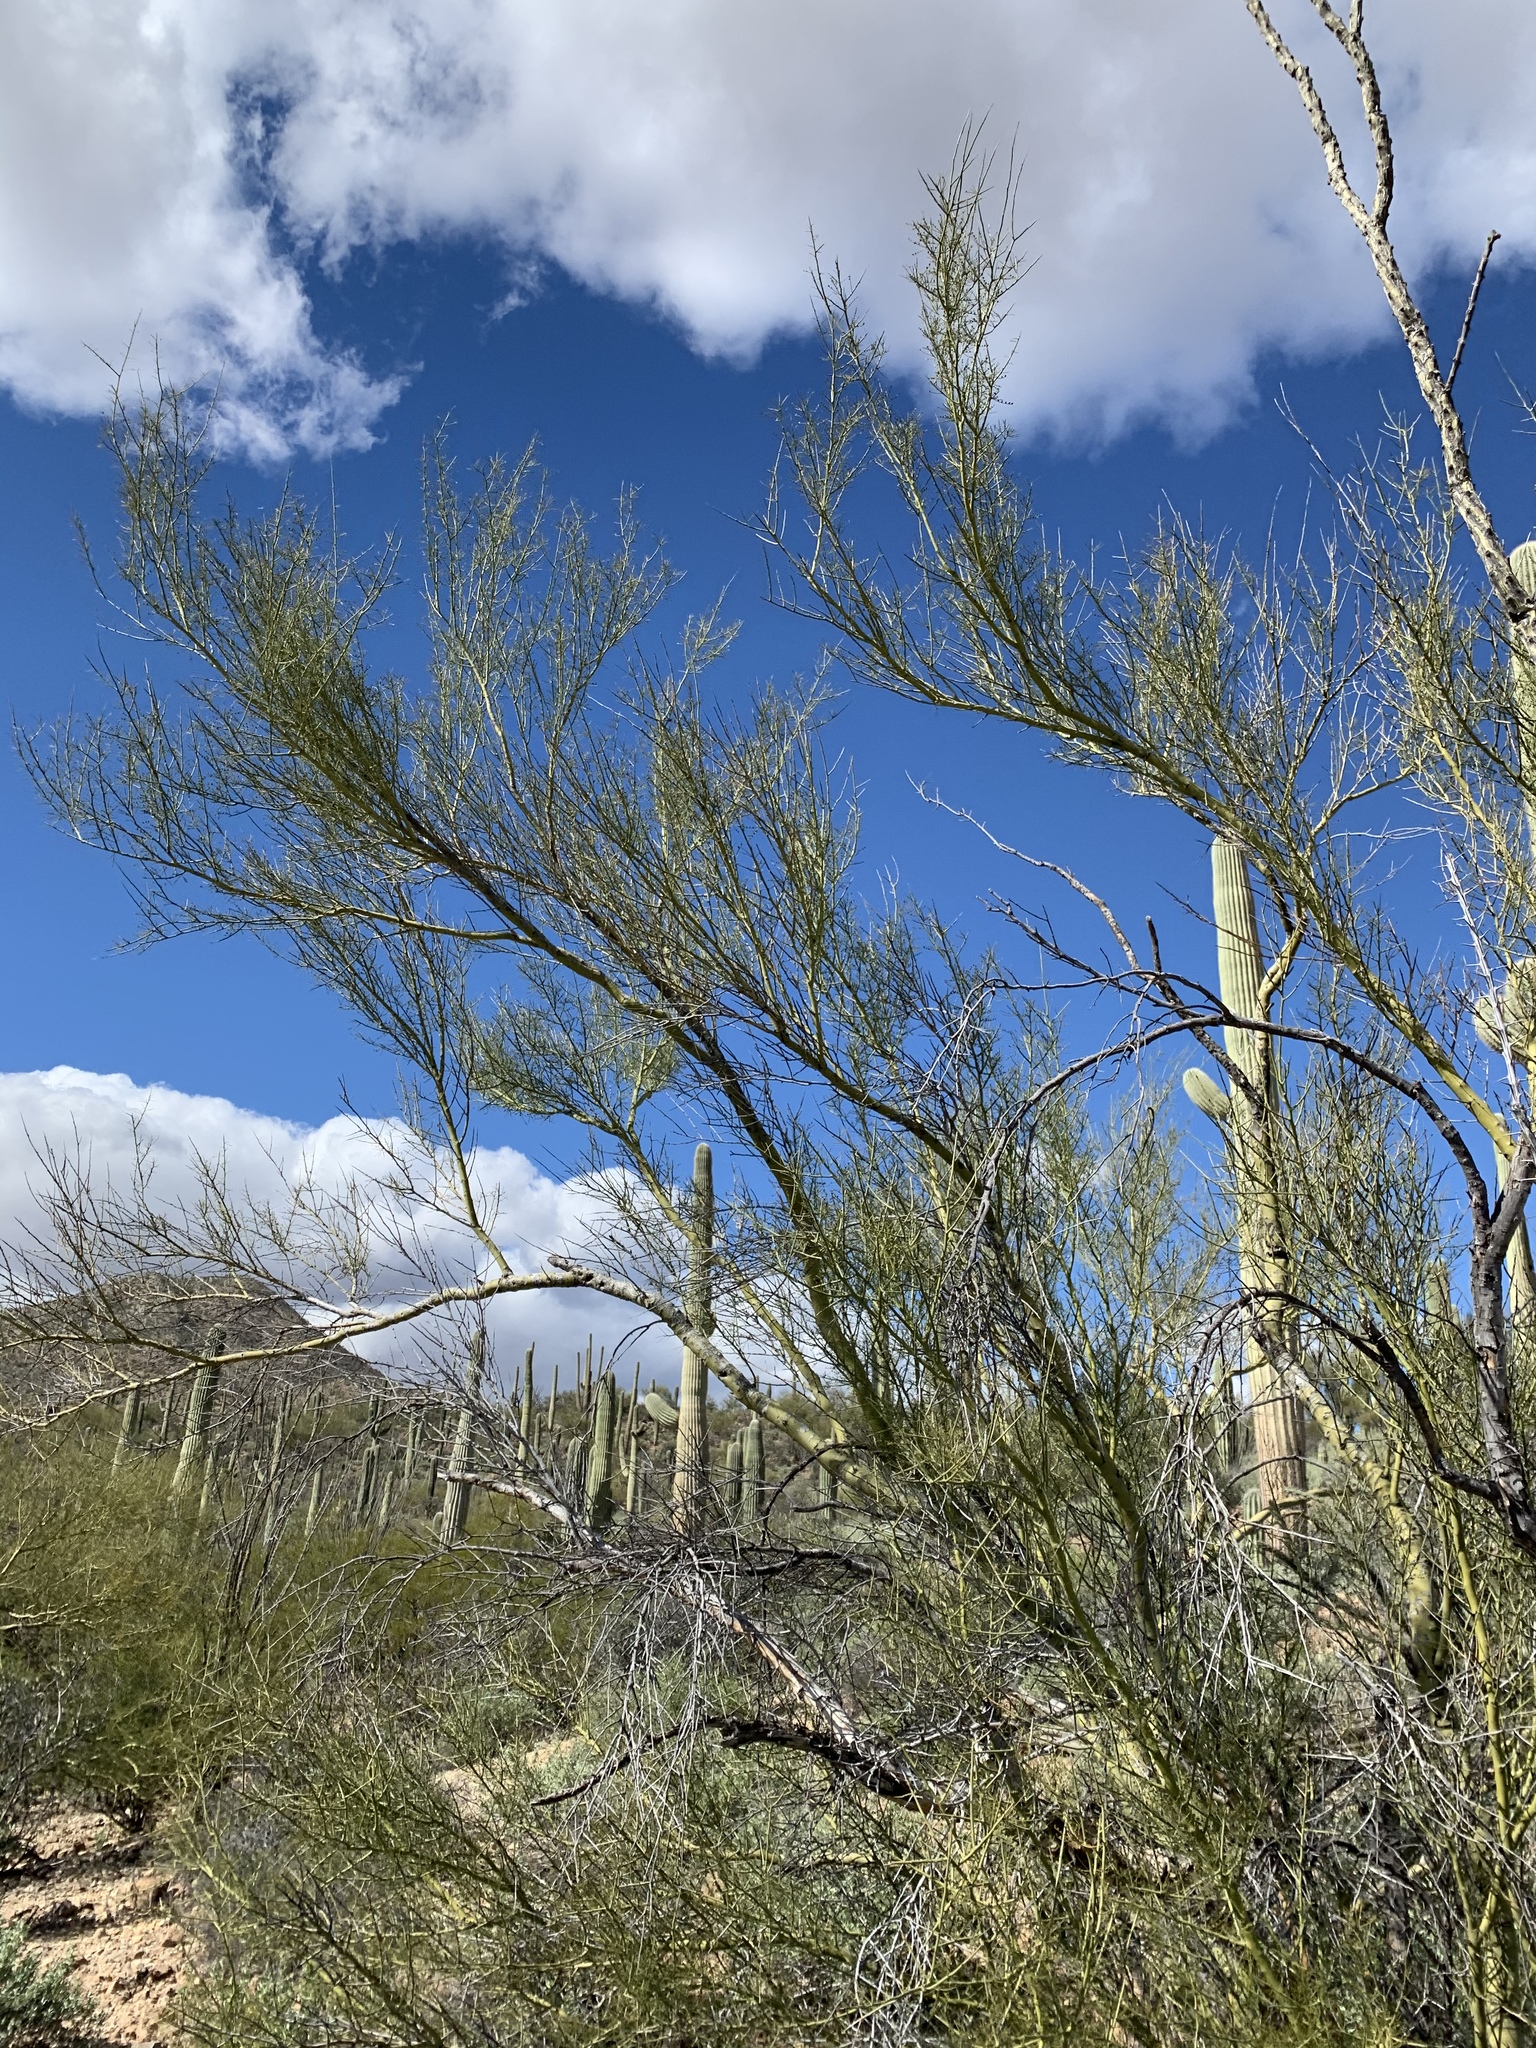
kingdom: Plantae
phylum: Tracheophyta
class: Magnoliopsida
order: Fabales
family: Fabaceae
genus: Parkinsonia
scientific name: Parkinsonia microphylla
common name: Yellow paloverde
